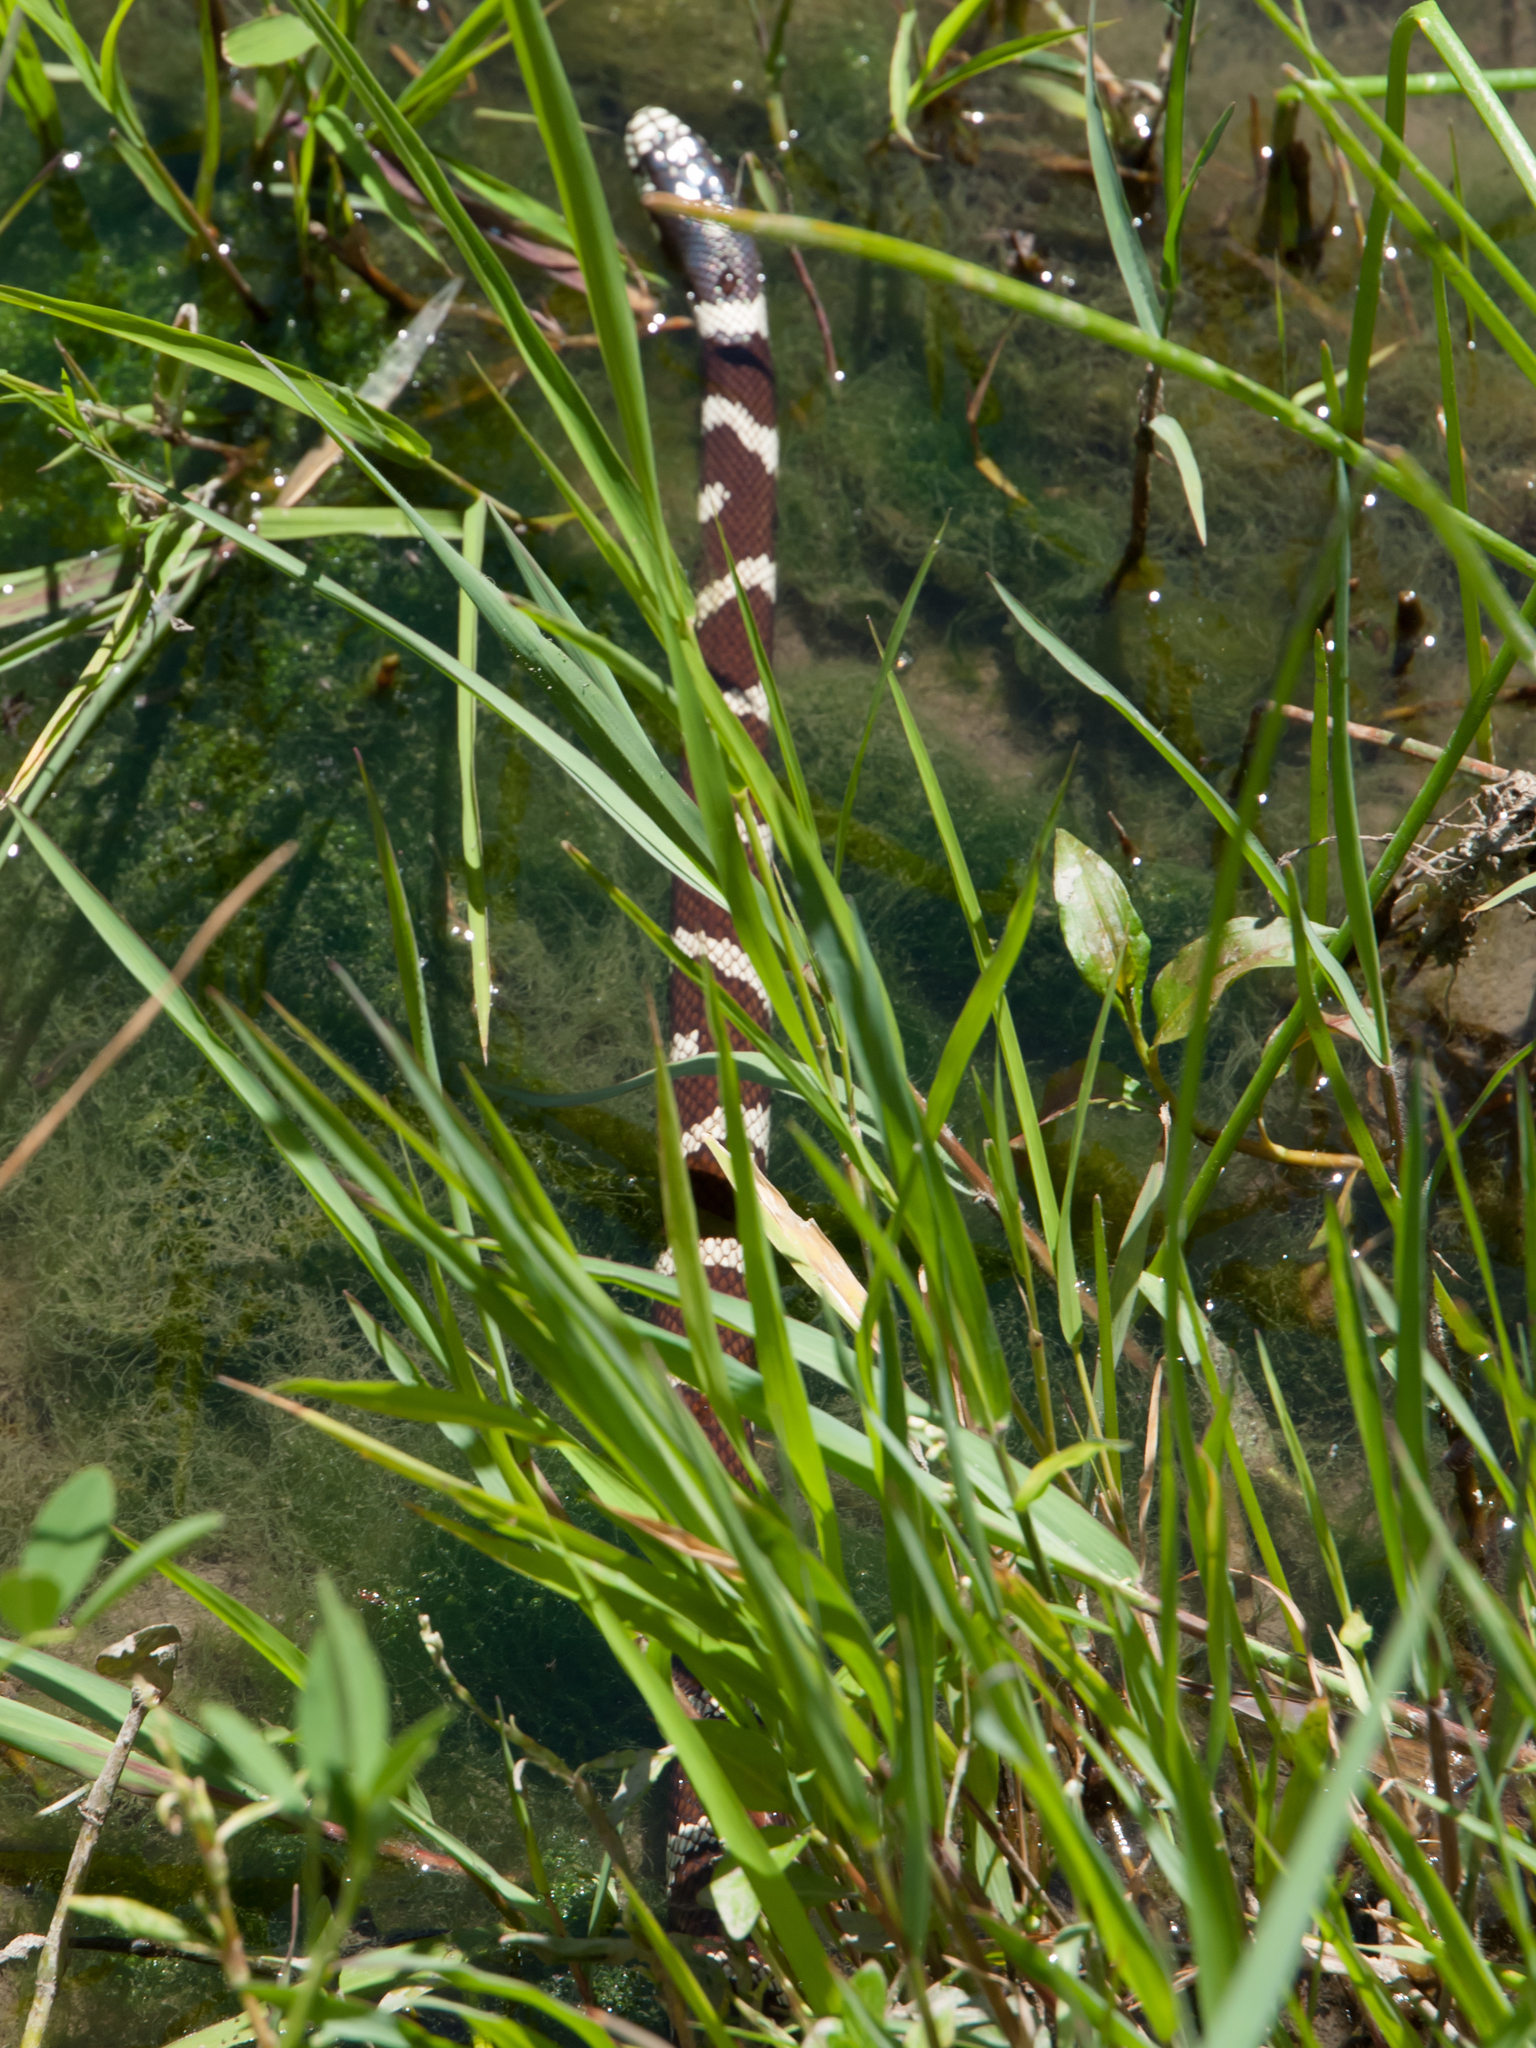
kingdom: Animalia
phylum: Chordata
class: Squamata
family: Colubridae
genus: Lampropeltis
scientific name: Lampropeltis californiae
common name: California kingsnake
